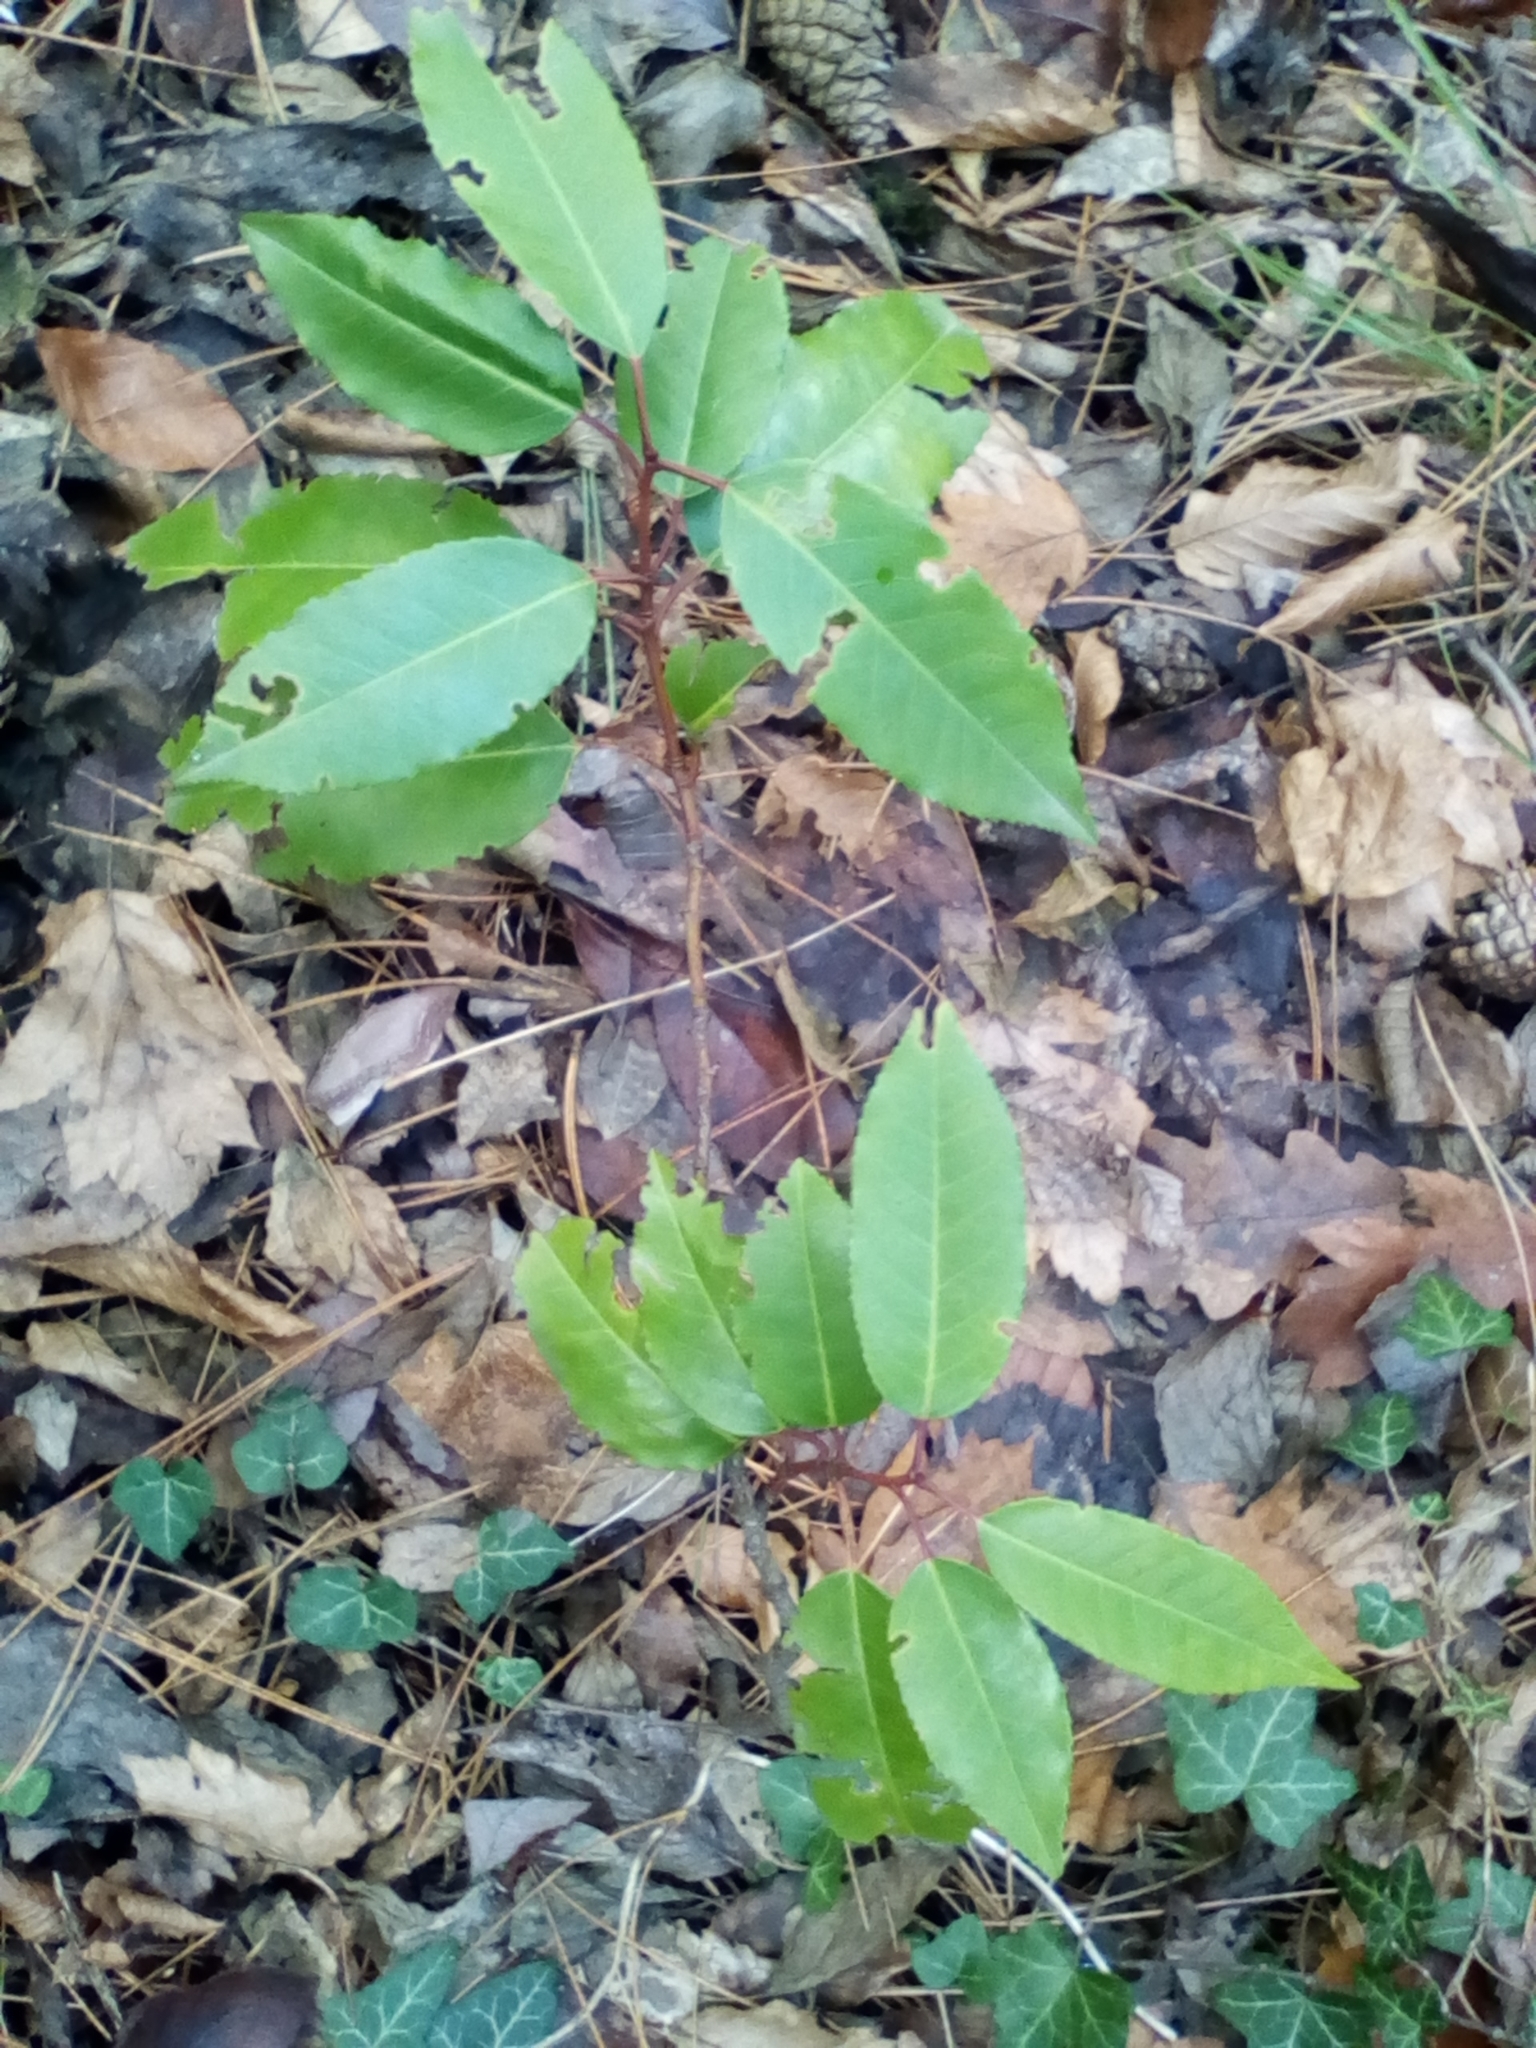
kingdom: Plantae
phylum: Tracheophyta
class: Magnoliopsida
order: Rosales
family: Rosaceae
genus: Prunus
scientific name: Prunus lusitanica
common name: Portugal laurel
